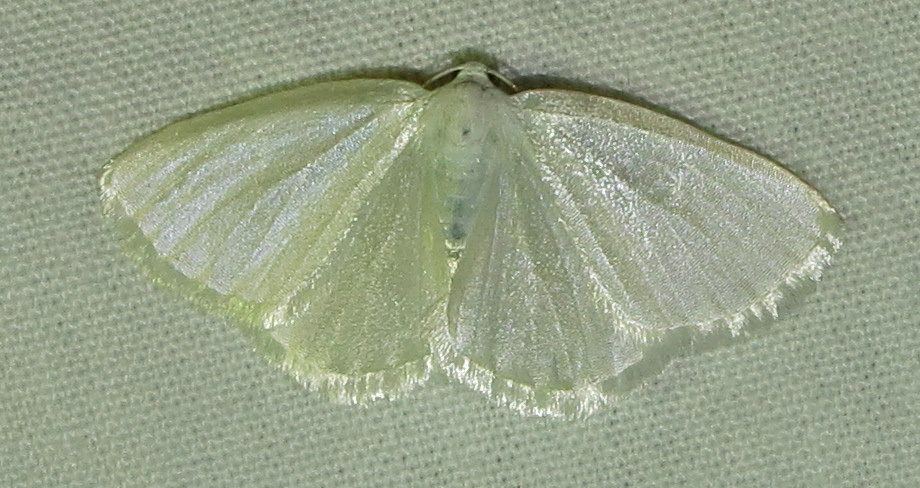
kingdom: Animalia
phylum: Arthropoda
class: Insecta
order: Lepidoptera
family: Geometridae
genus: Lomographa
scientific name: Lomographa vestaliata
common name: White spring moth
